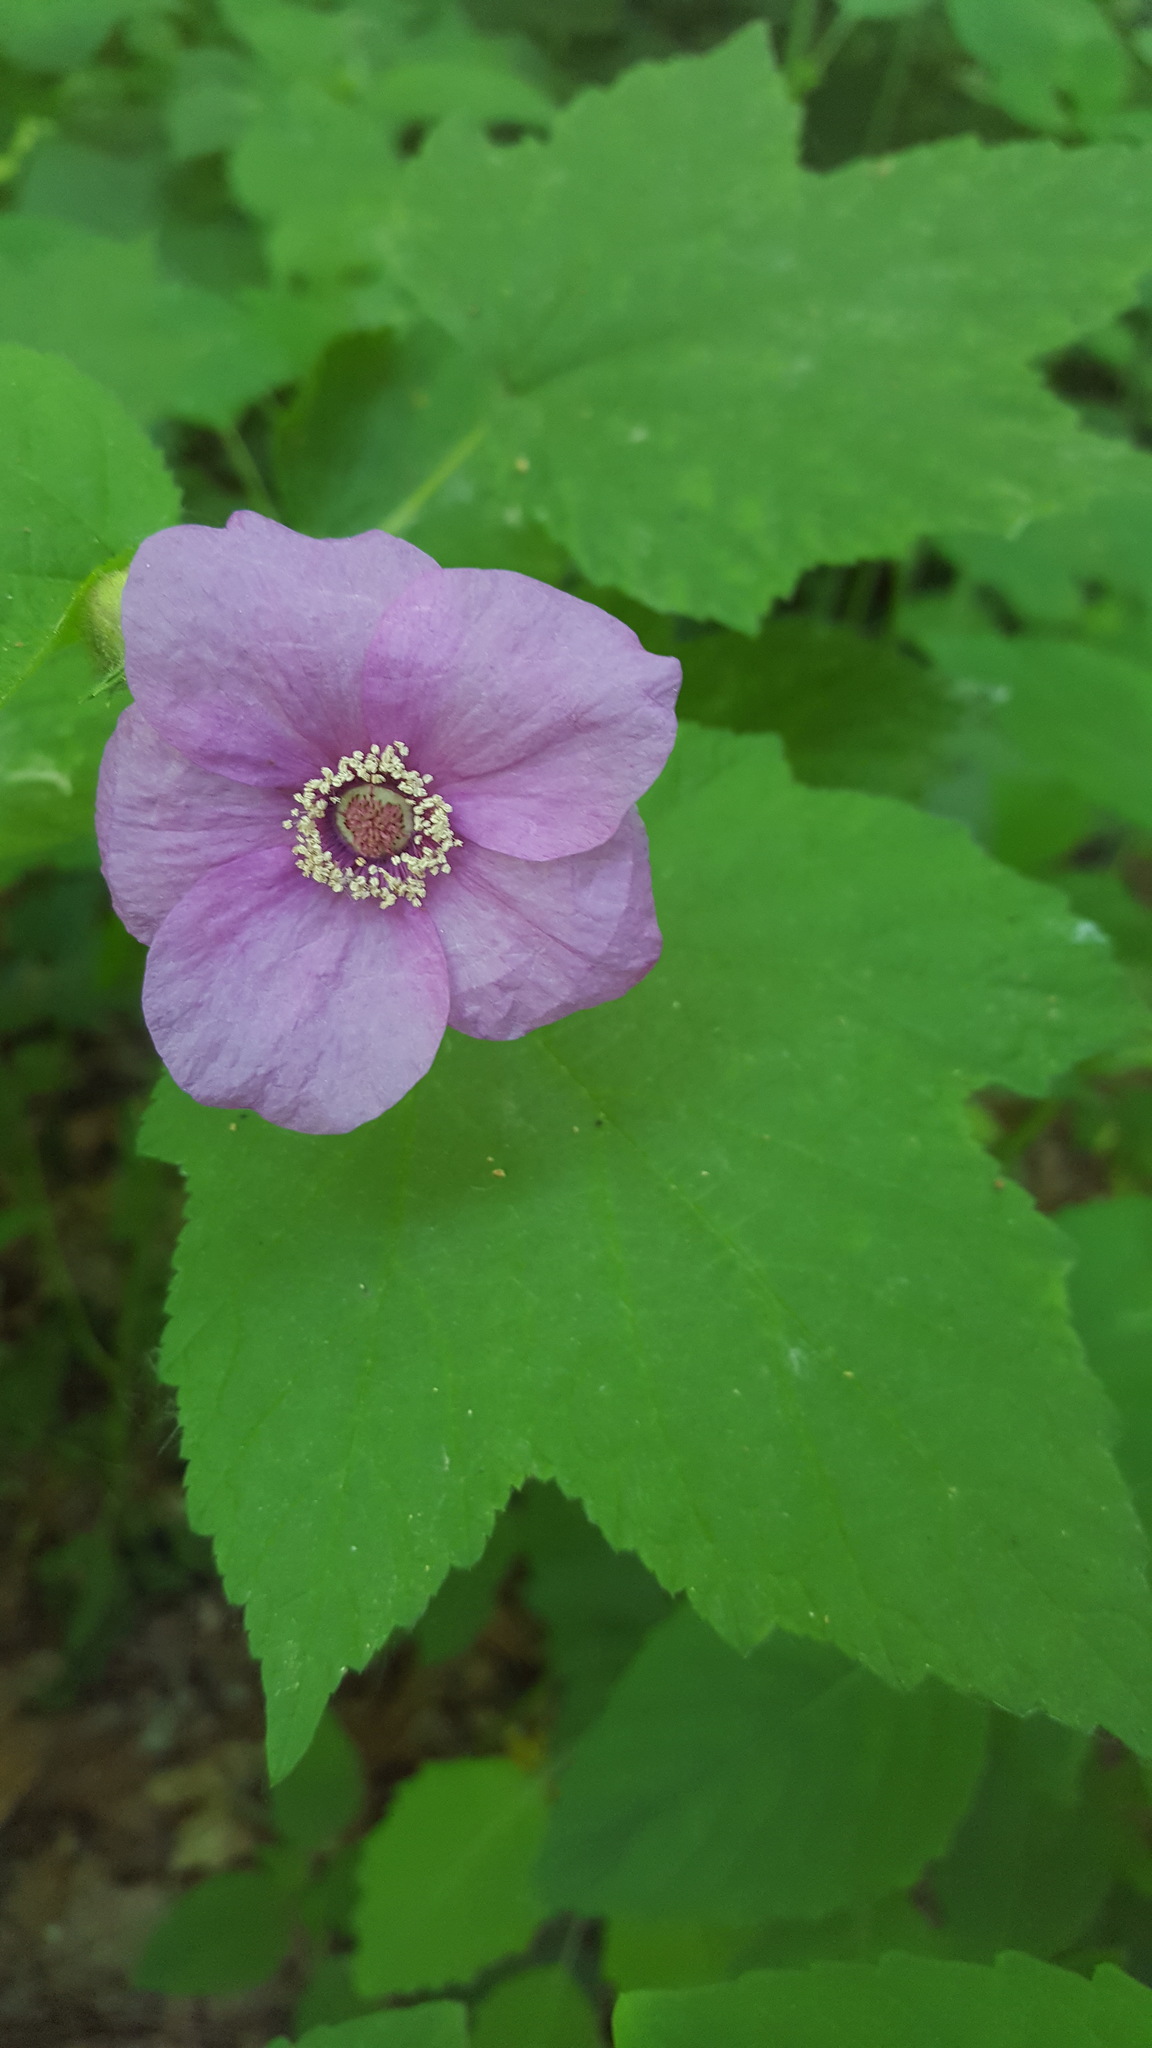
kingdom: Plantae
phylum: Tracheophyta
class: Magnoliopsida
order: Rosales
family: Rosaceae
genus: Rubus
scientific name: Rubus odoratus
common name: Purple-flowered raspberry
